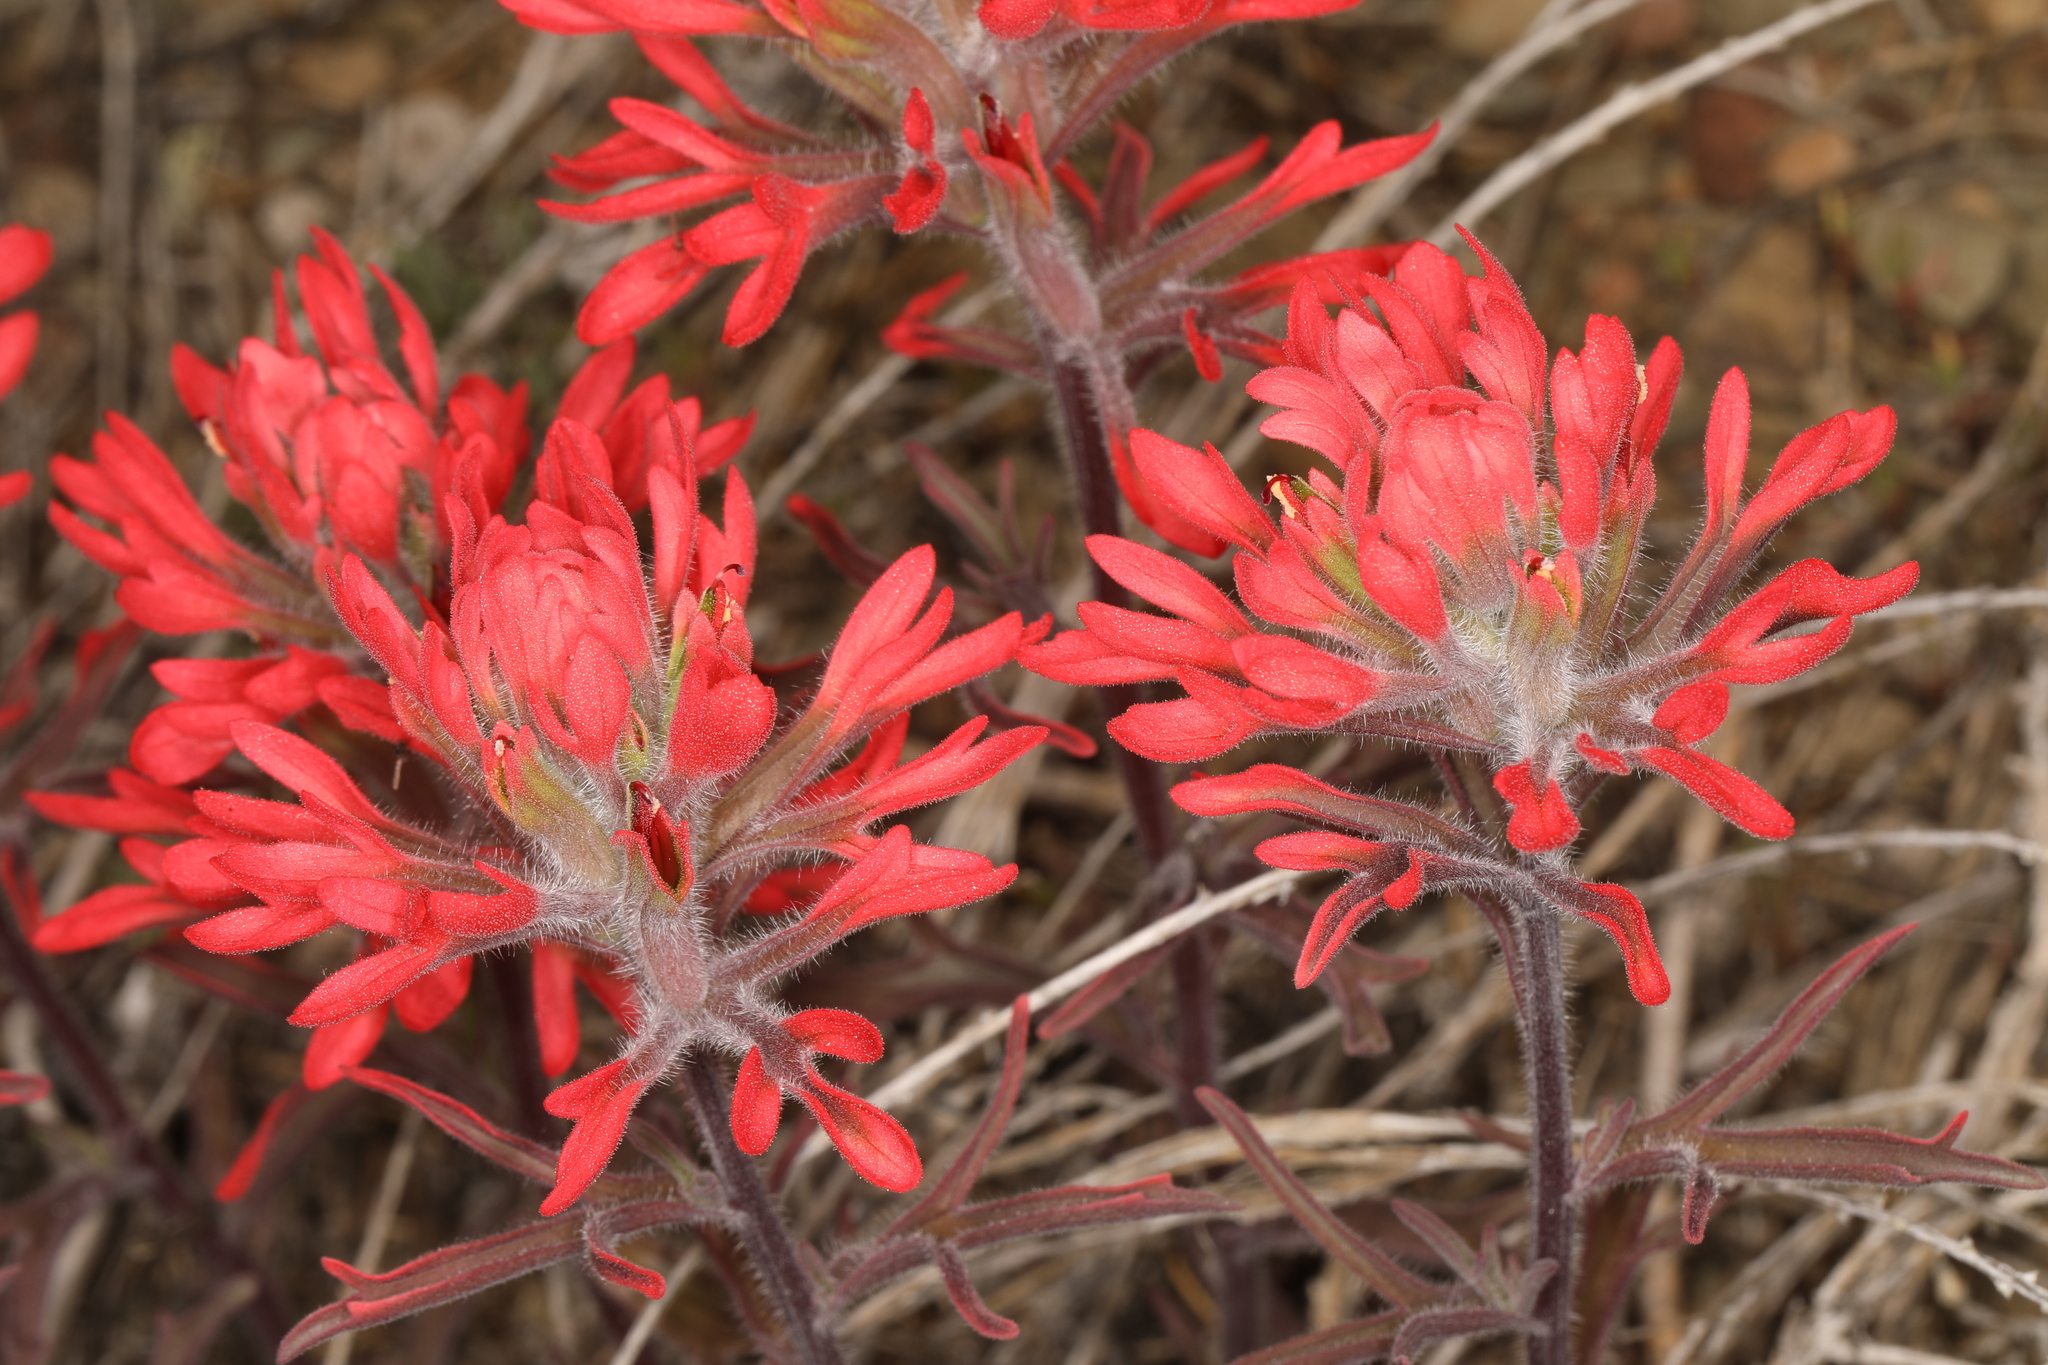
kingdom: Plantae
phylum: Tracheophyta
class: Magnoliopsida
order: Lamiales
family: Orobanchaceae
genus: Castilleja
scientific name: Castilleja chromosa
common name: Desert paintbrush
